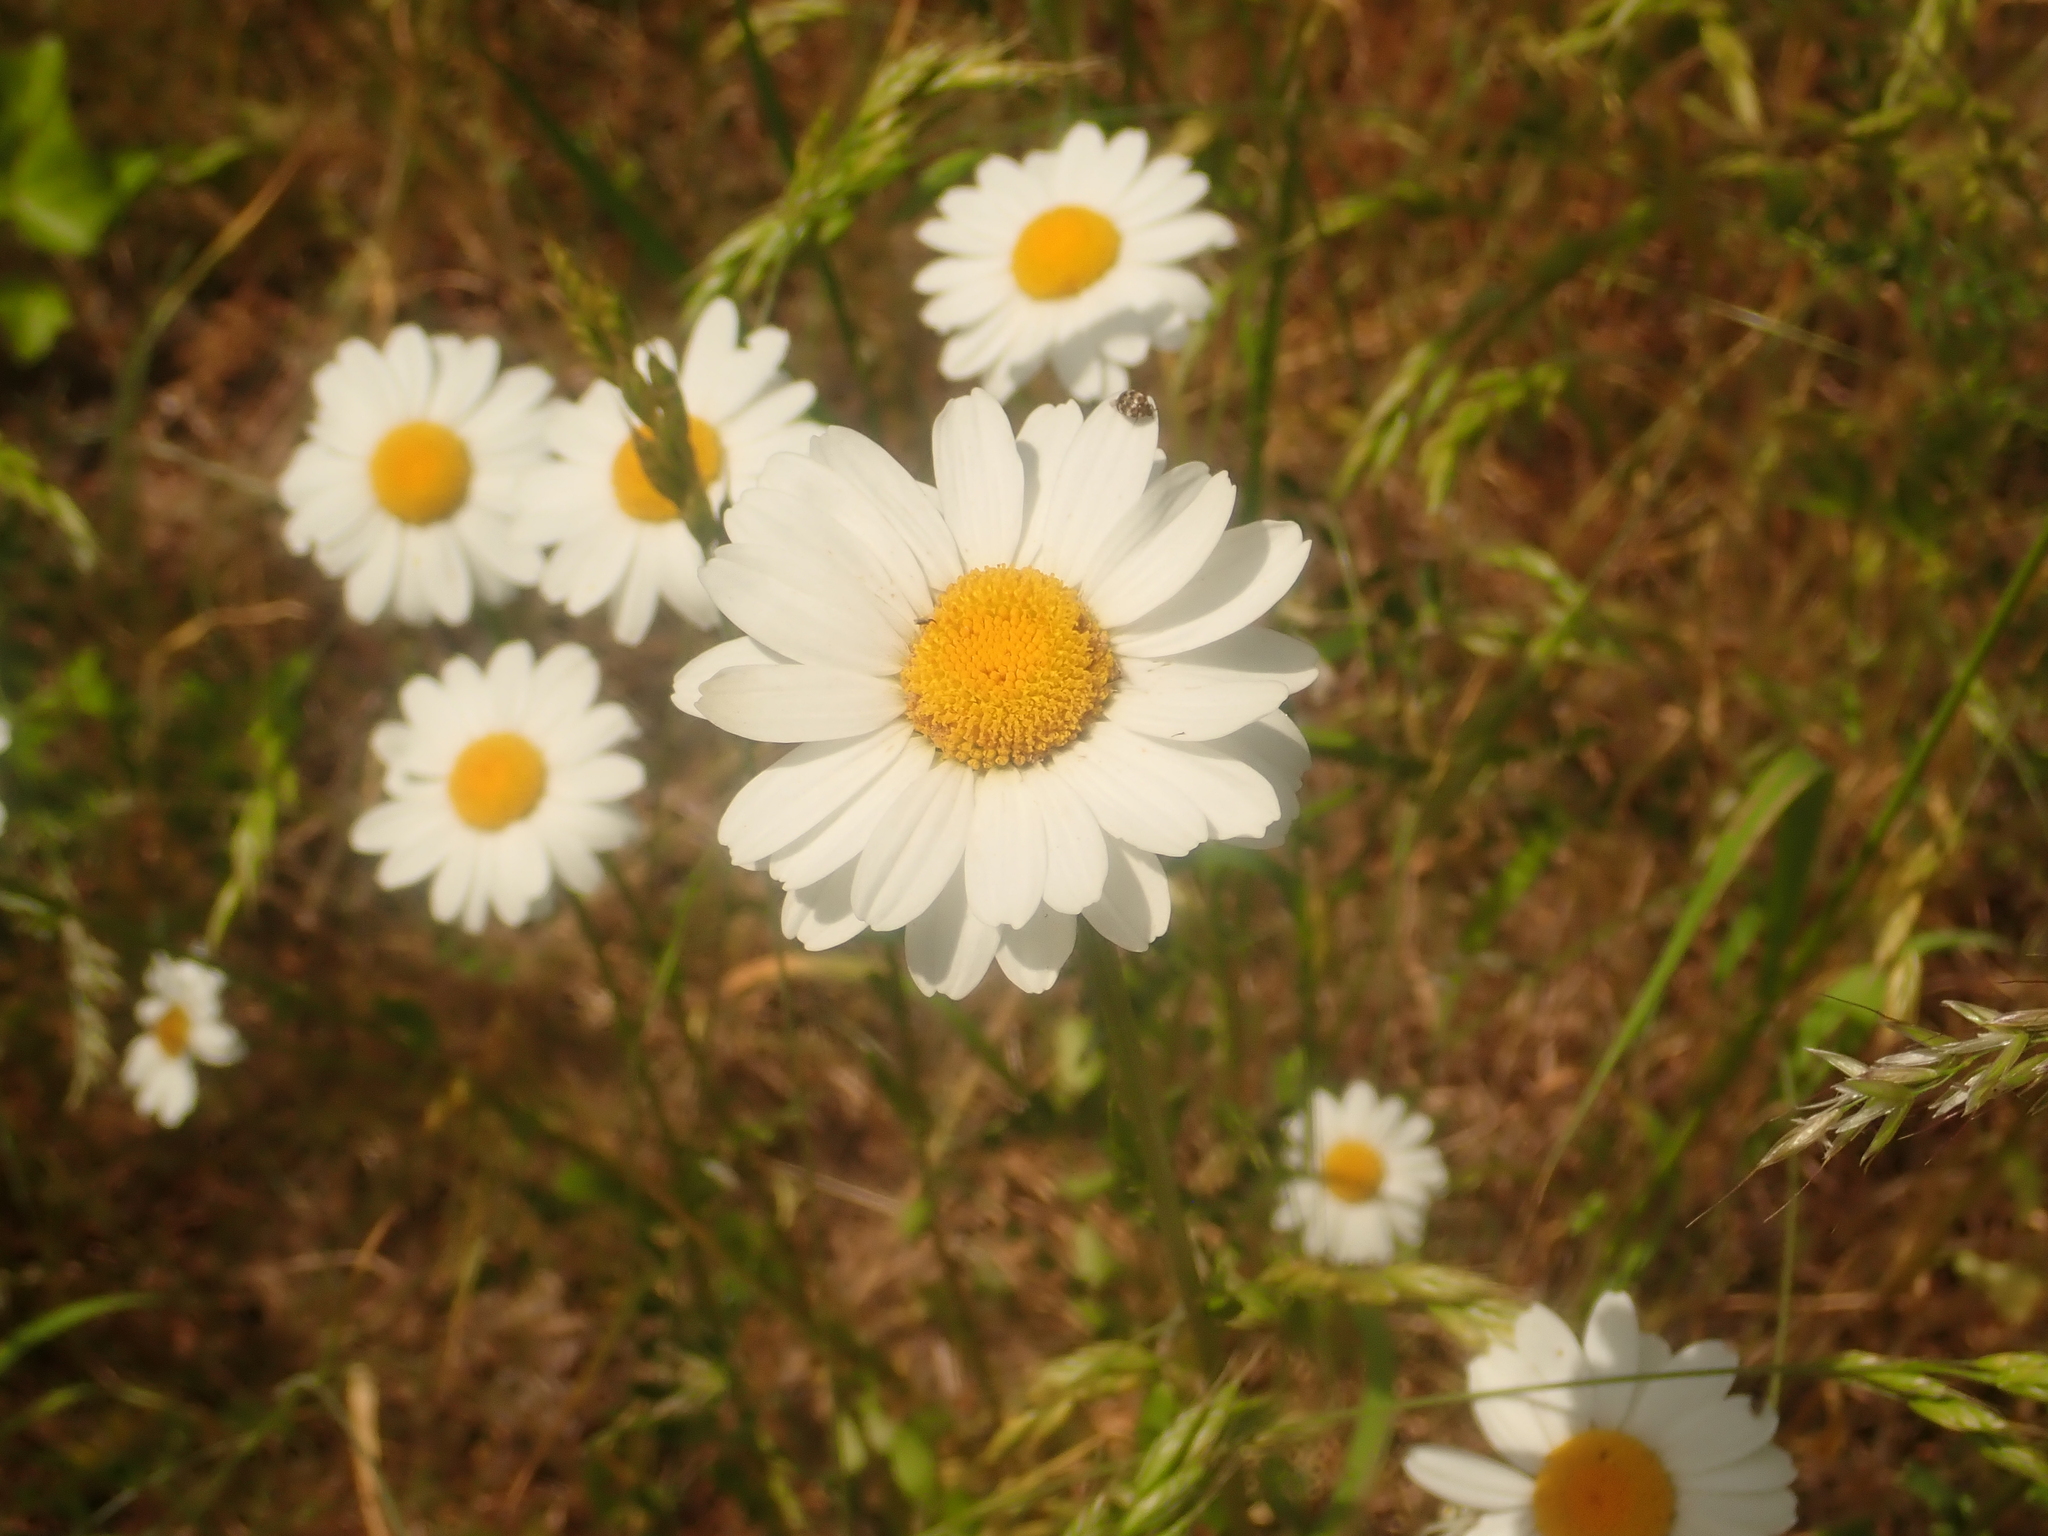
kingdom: Plantae
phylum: Tracheophyta
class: Magnoliopsida
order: Asterales
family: Asteraceae
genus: Leucanthemum
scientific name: Leucanthemum vulgare
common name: Oxeye daisy
